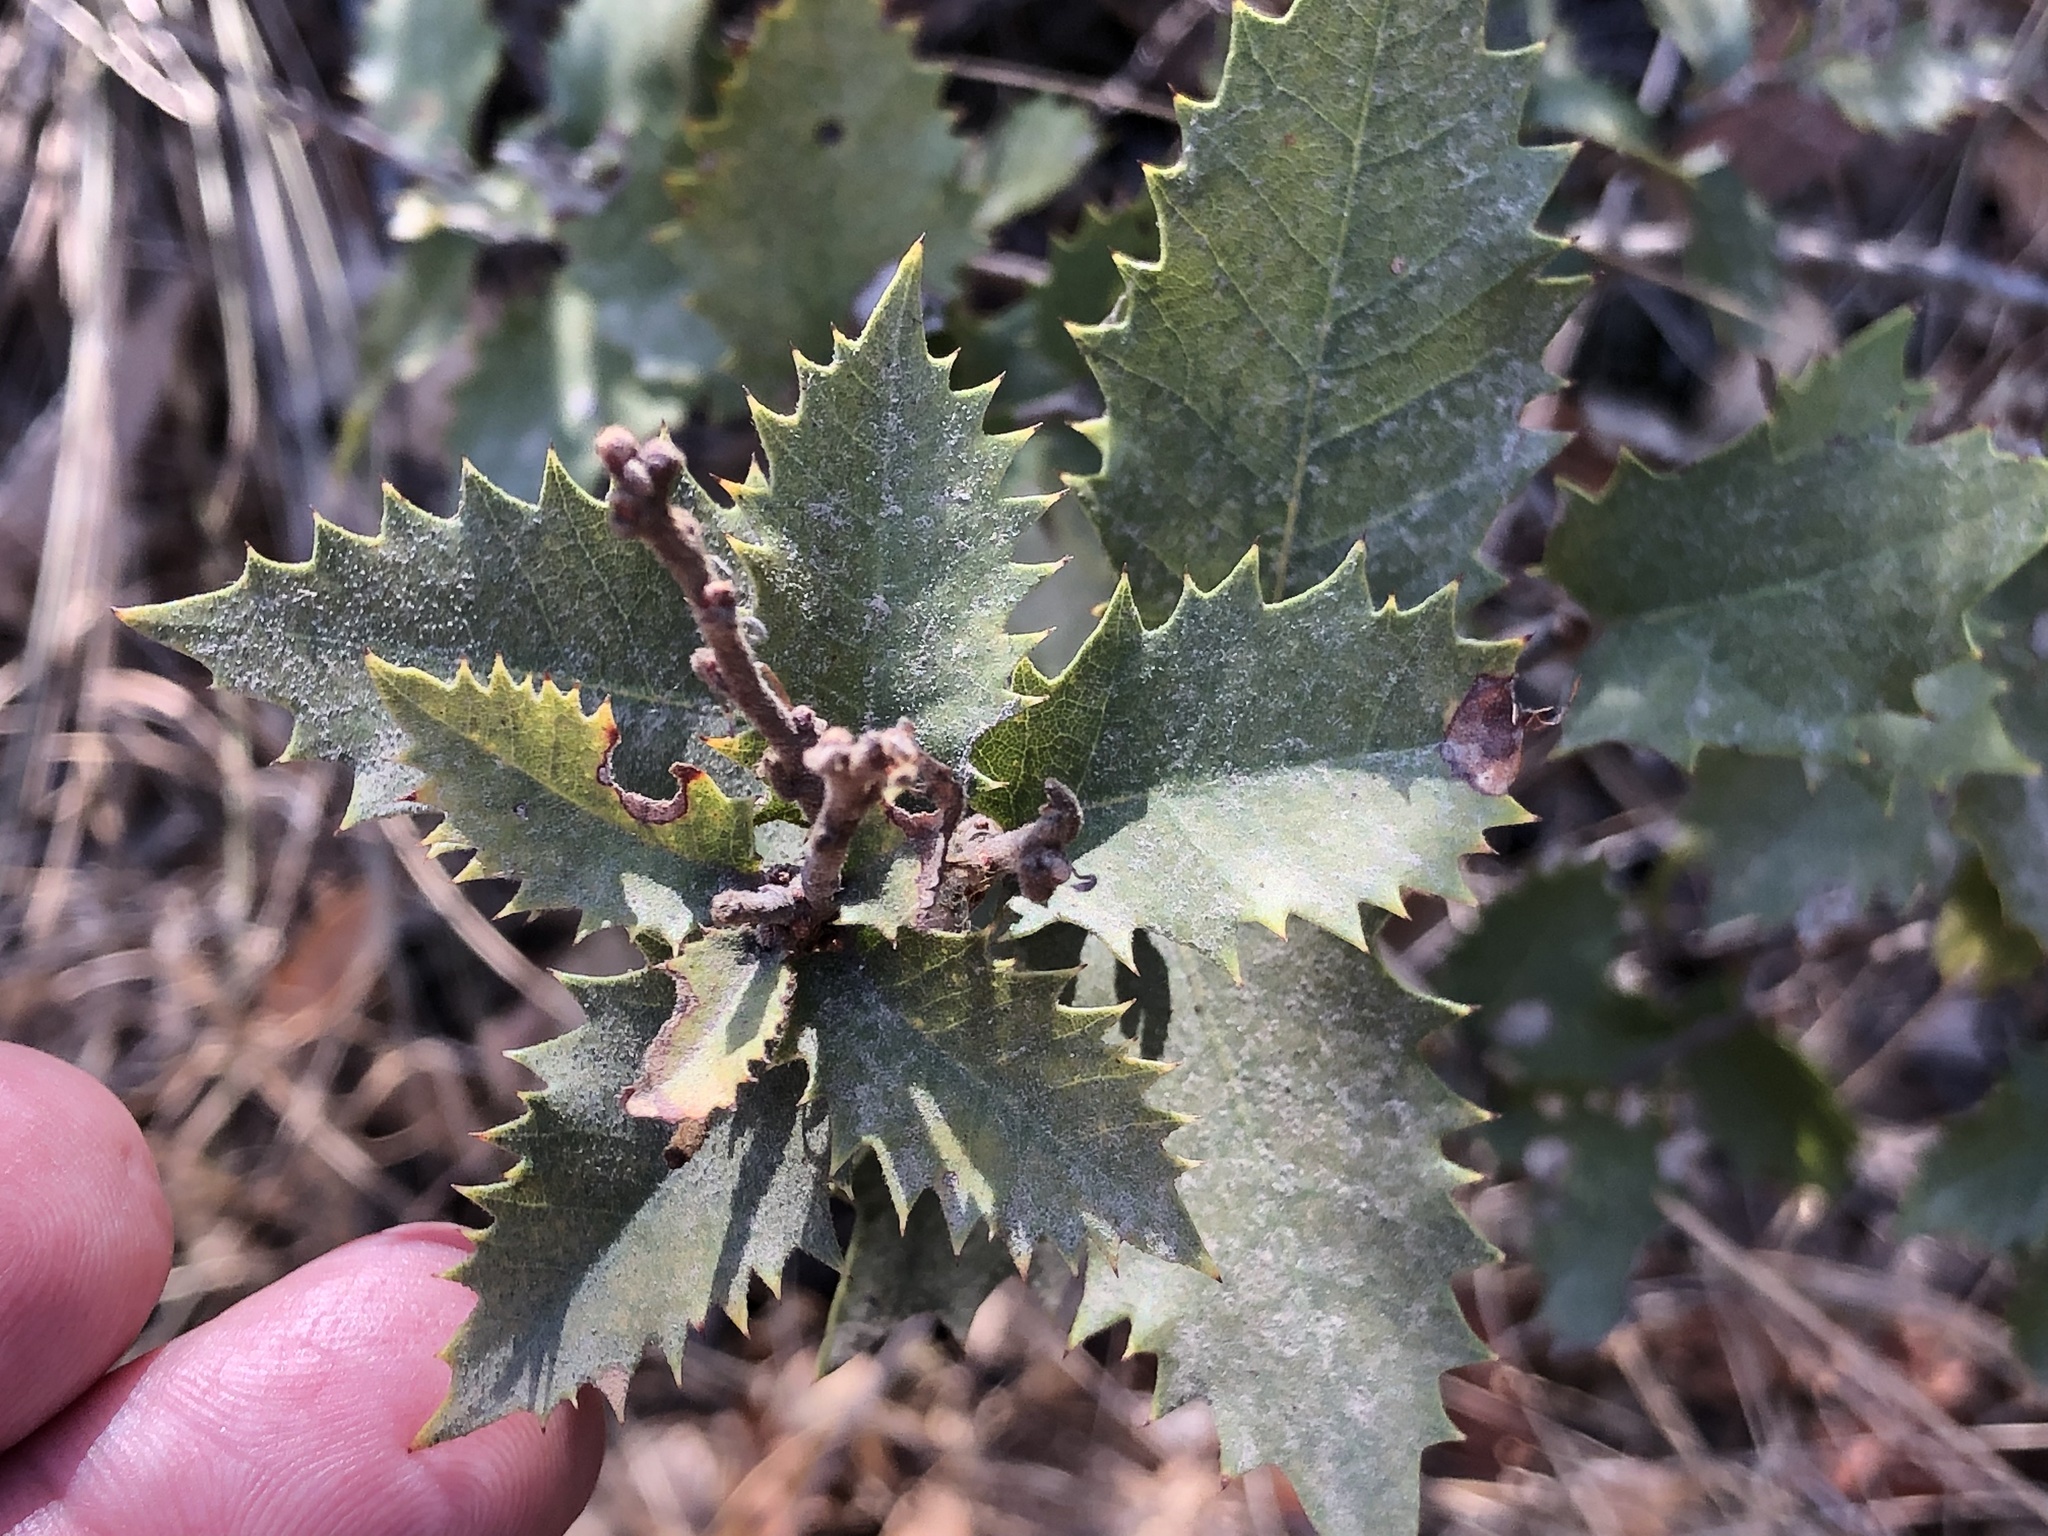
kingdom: Plantae
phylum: Tracheophyta
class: Magnoliopsida
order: Fagales
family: Fagaceae
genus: Quercus
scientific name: Quercus chrysolepis
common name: Canyon live oak
